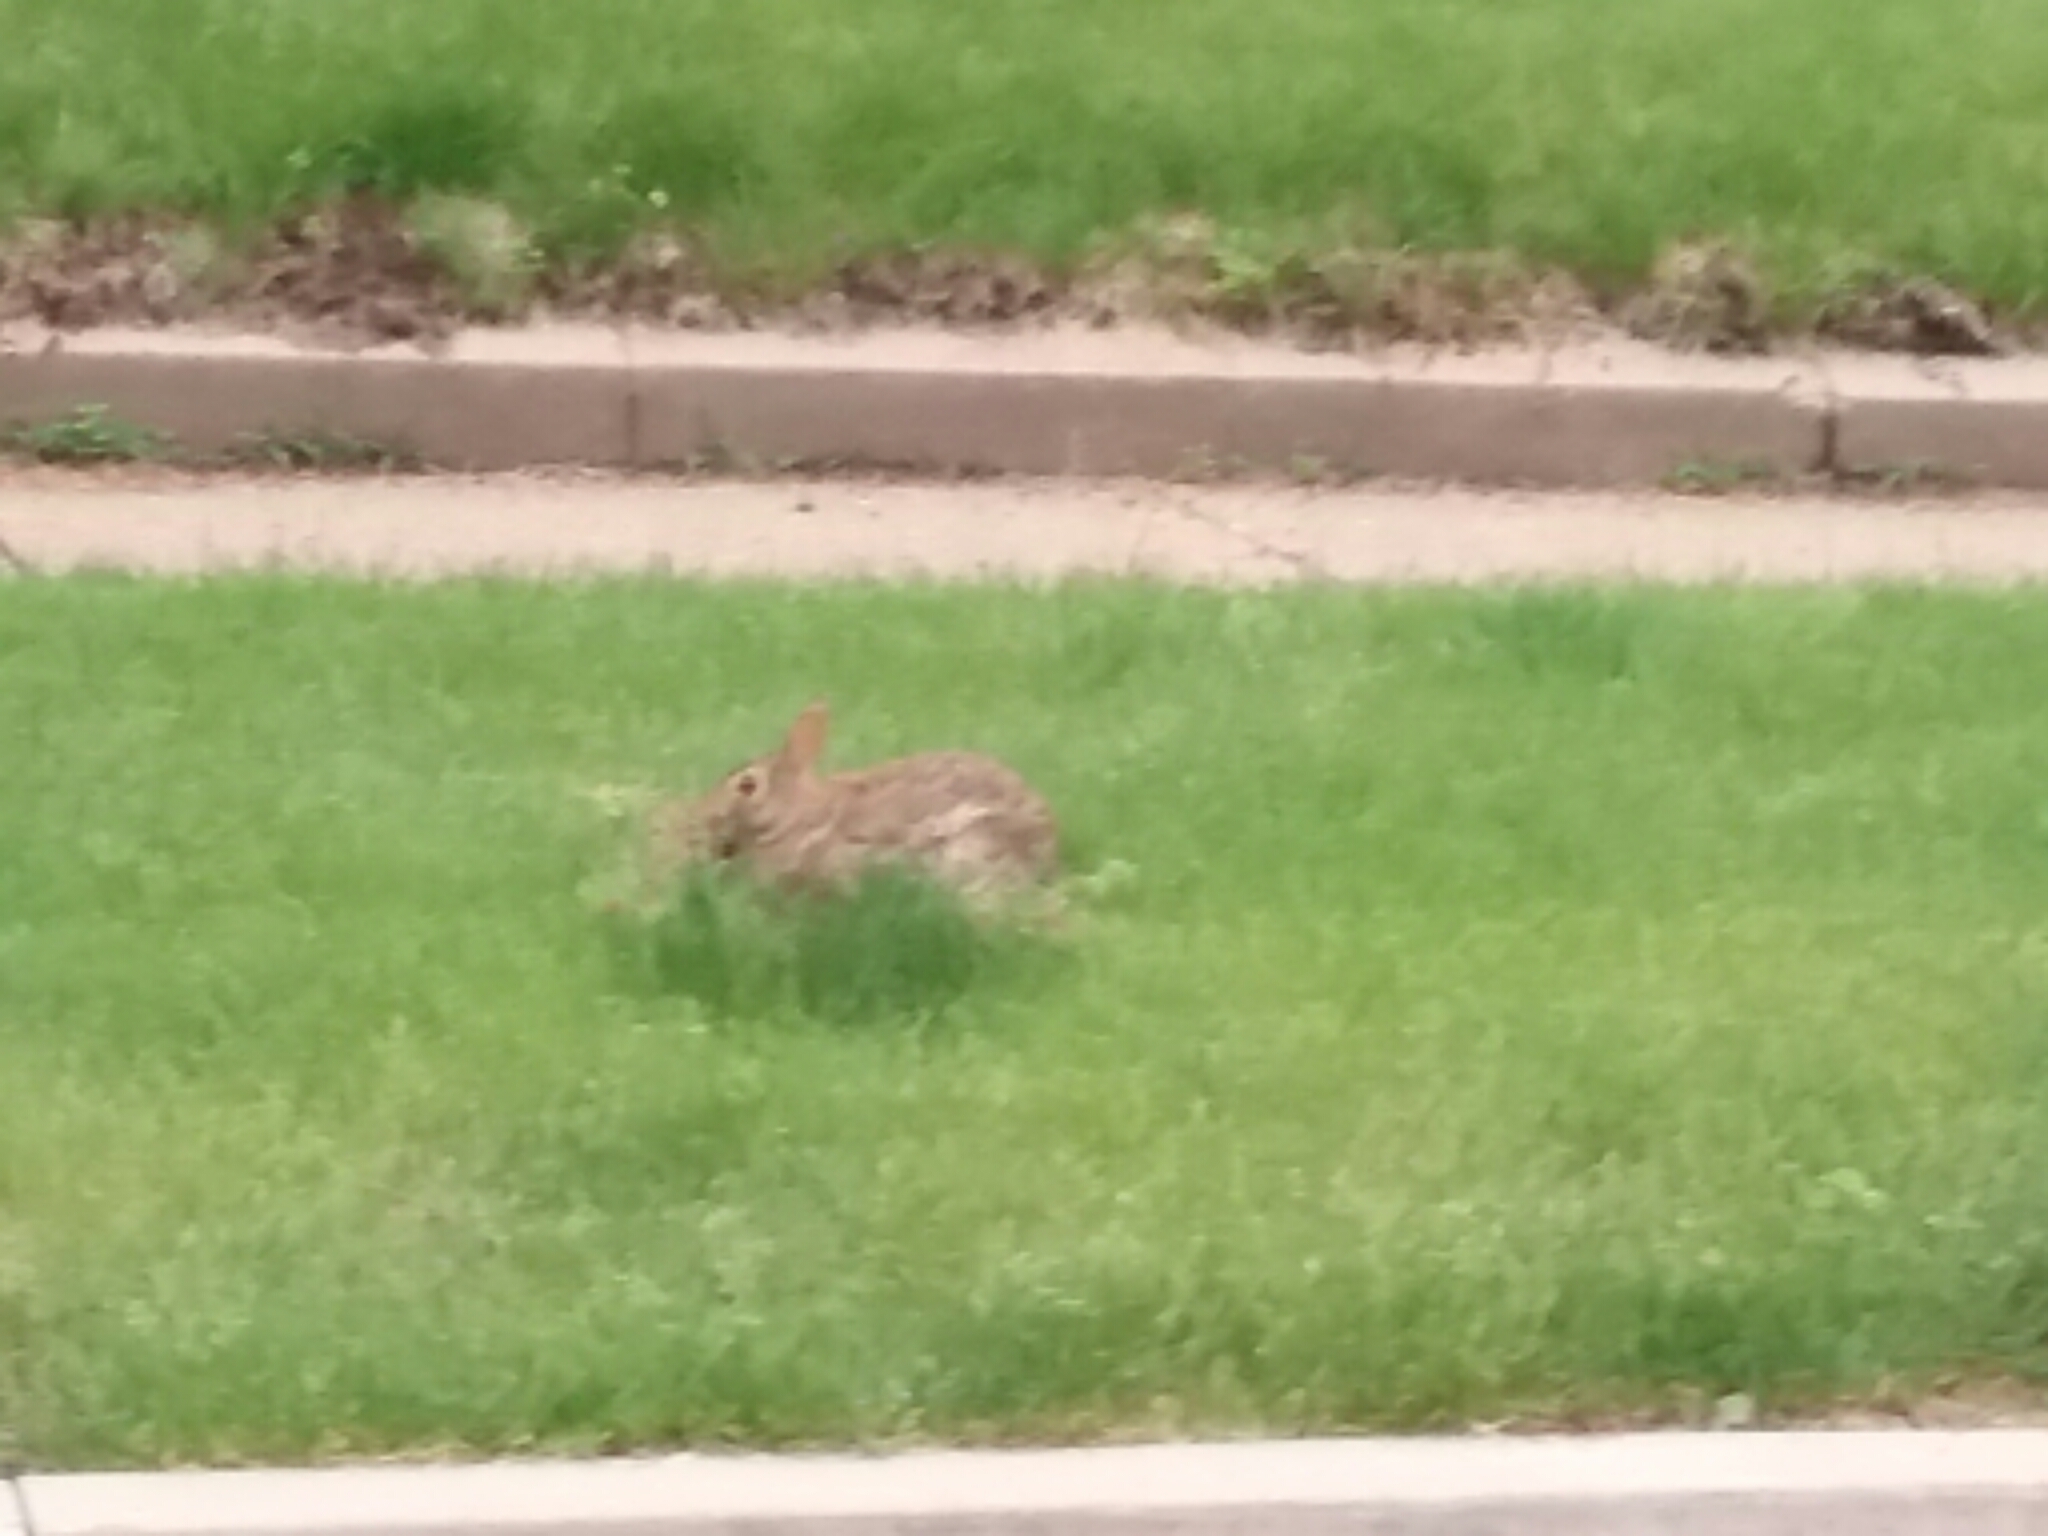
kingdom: Animalia
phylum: Chordata
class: Mammalia
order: Lagomorpha
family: Leporidae
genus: Sylvilagus
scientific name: Sylvilagus floridanus
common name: Eastern cottontail
